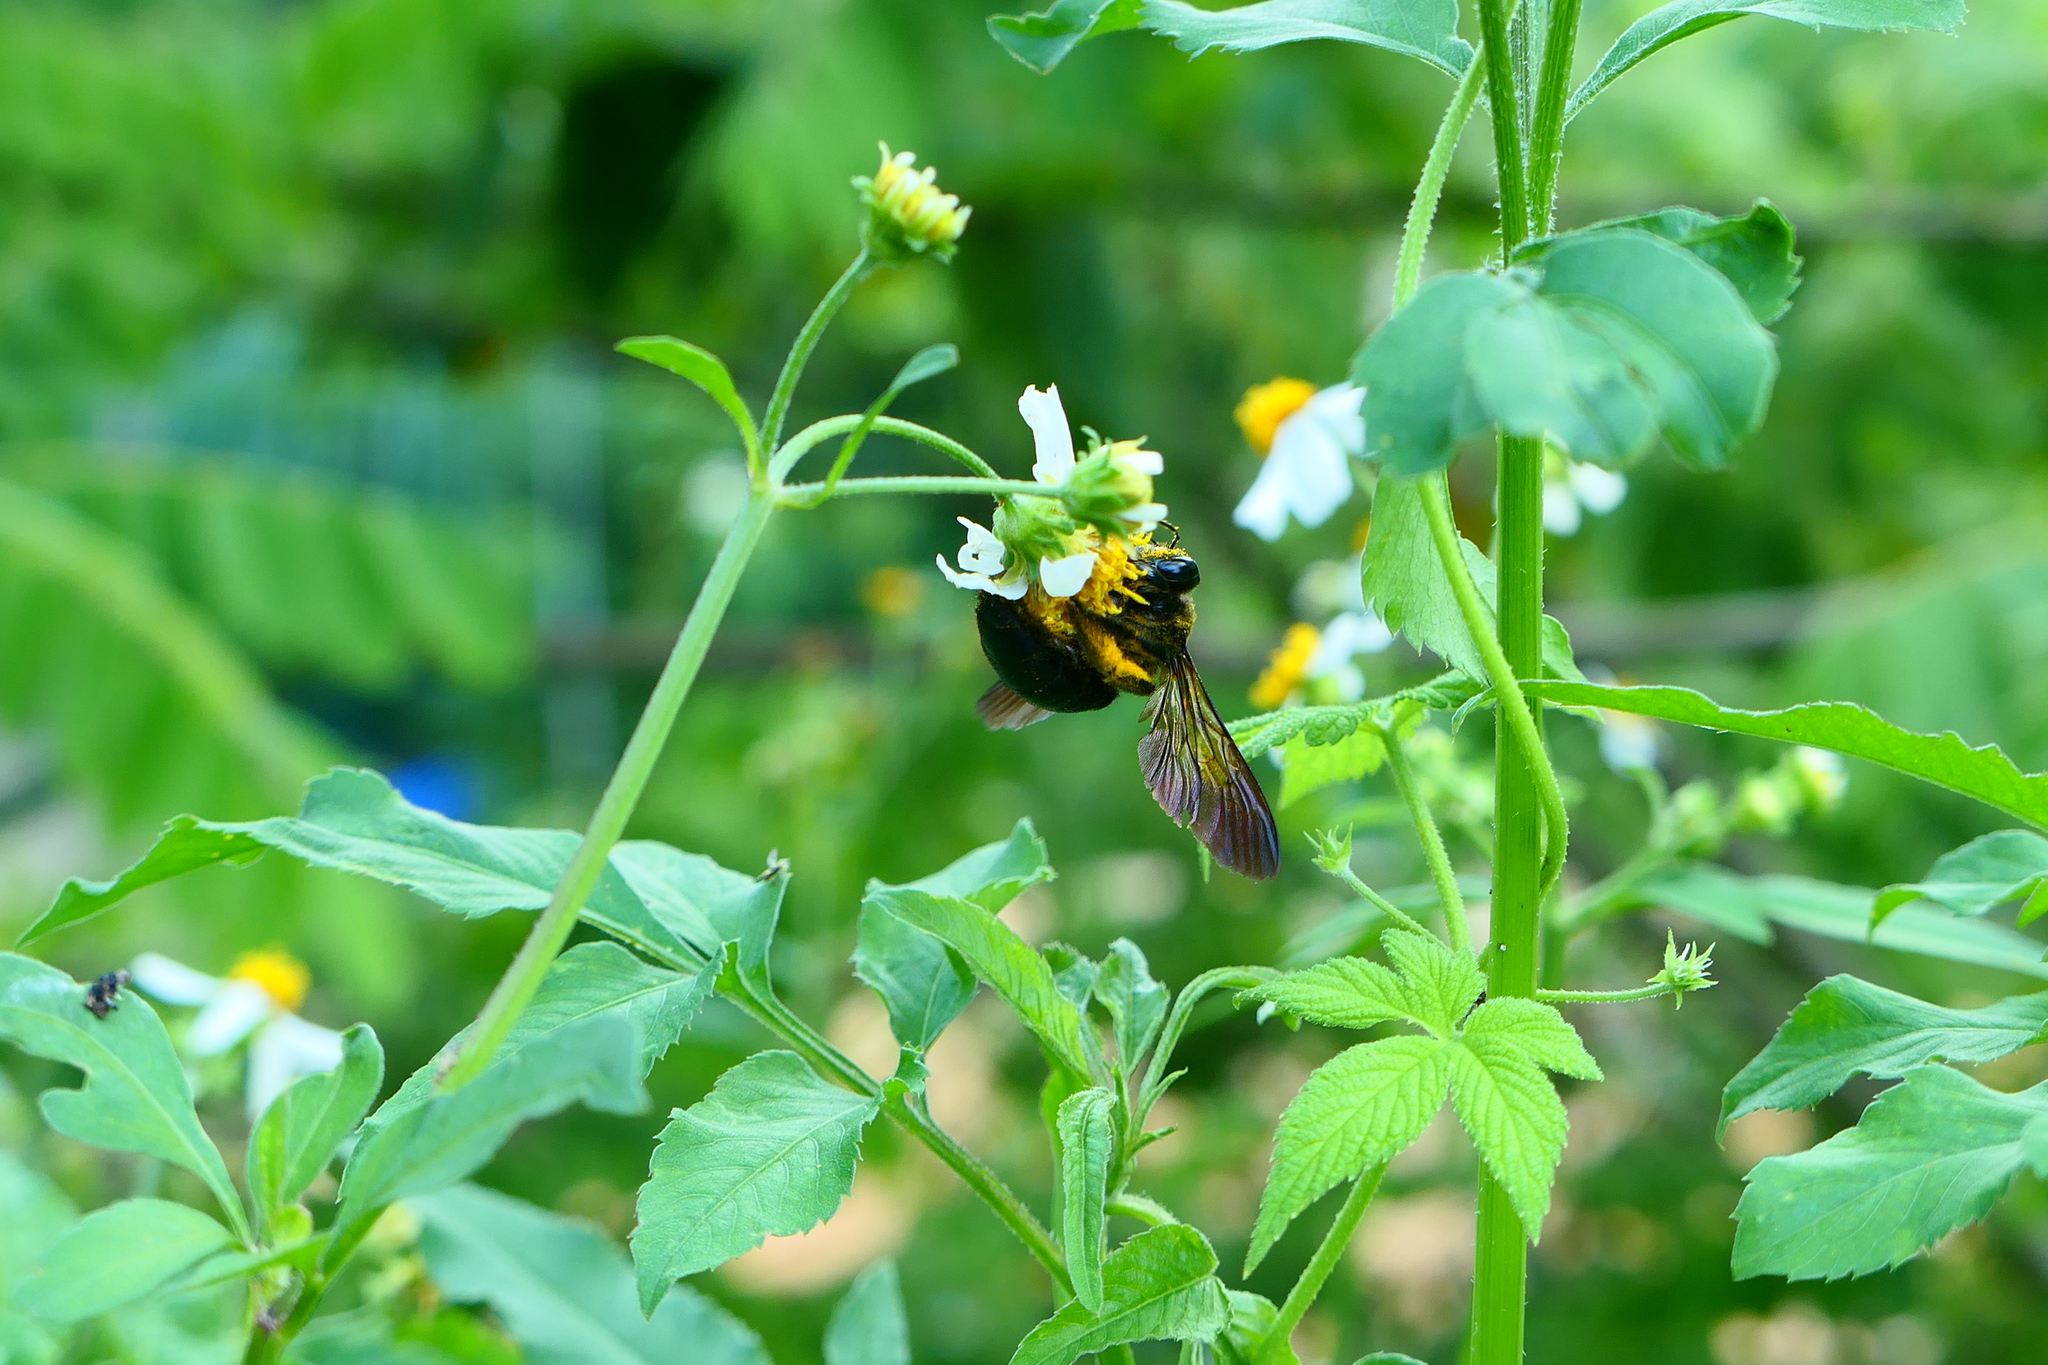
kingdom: Animalia
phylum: Arthropoda
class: Insecta
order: Hymenoptera
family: Apidae
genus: Xylocopa
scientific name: Xylocopa tranquebarorum
